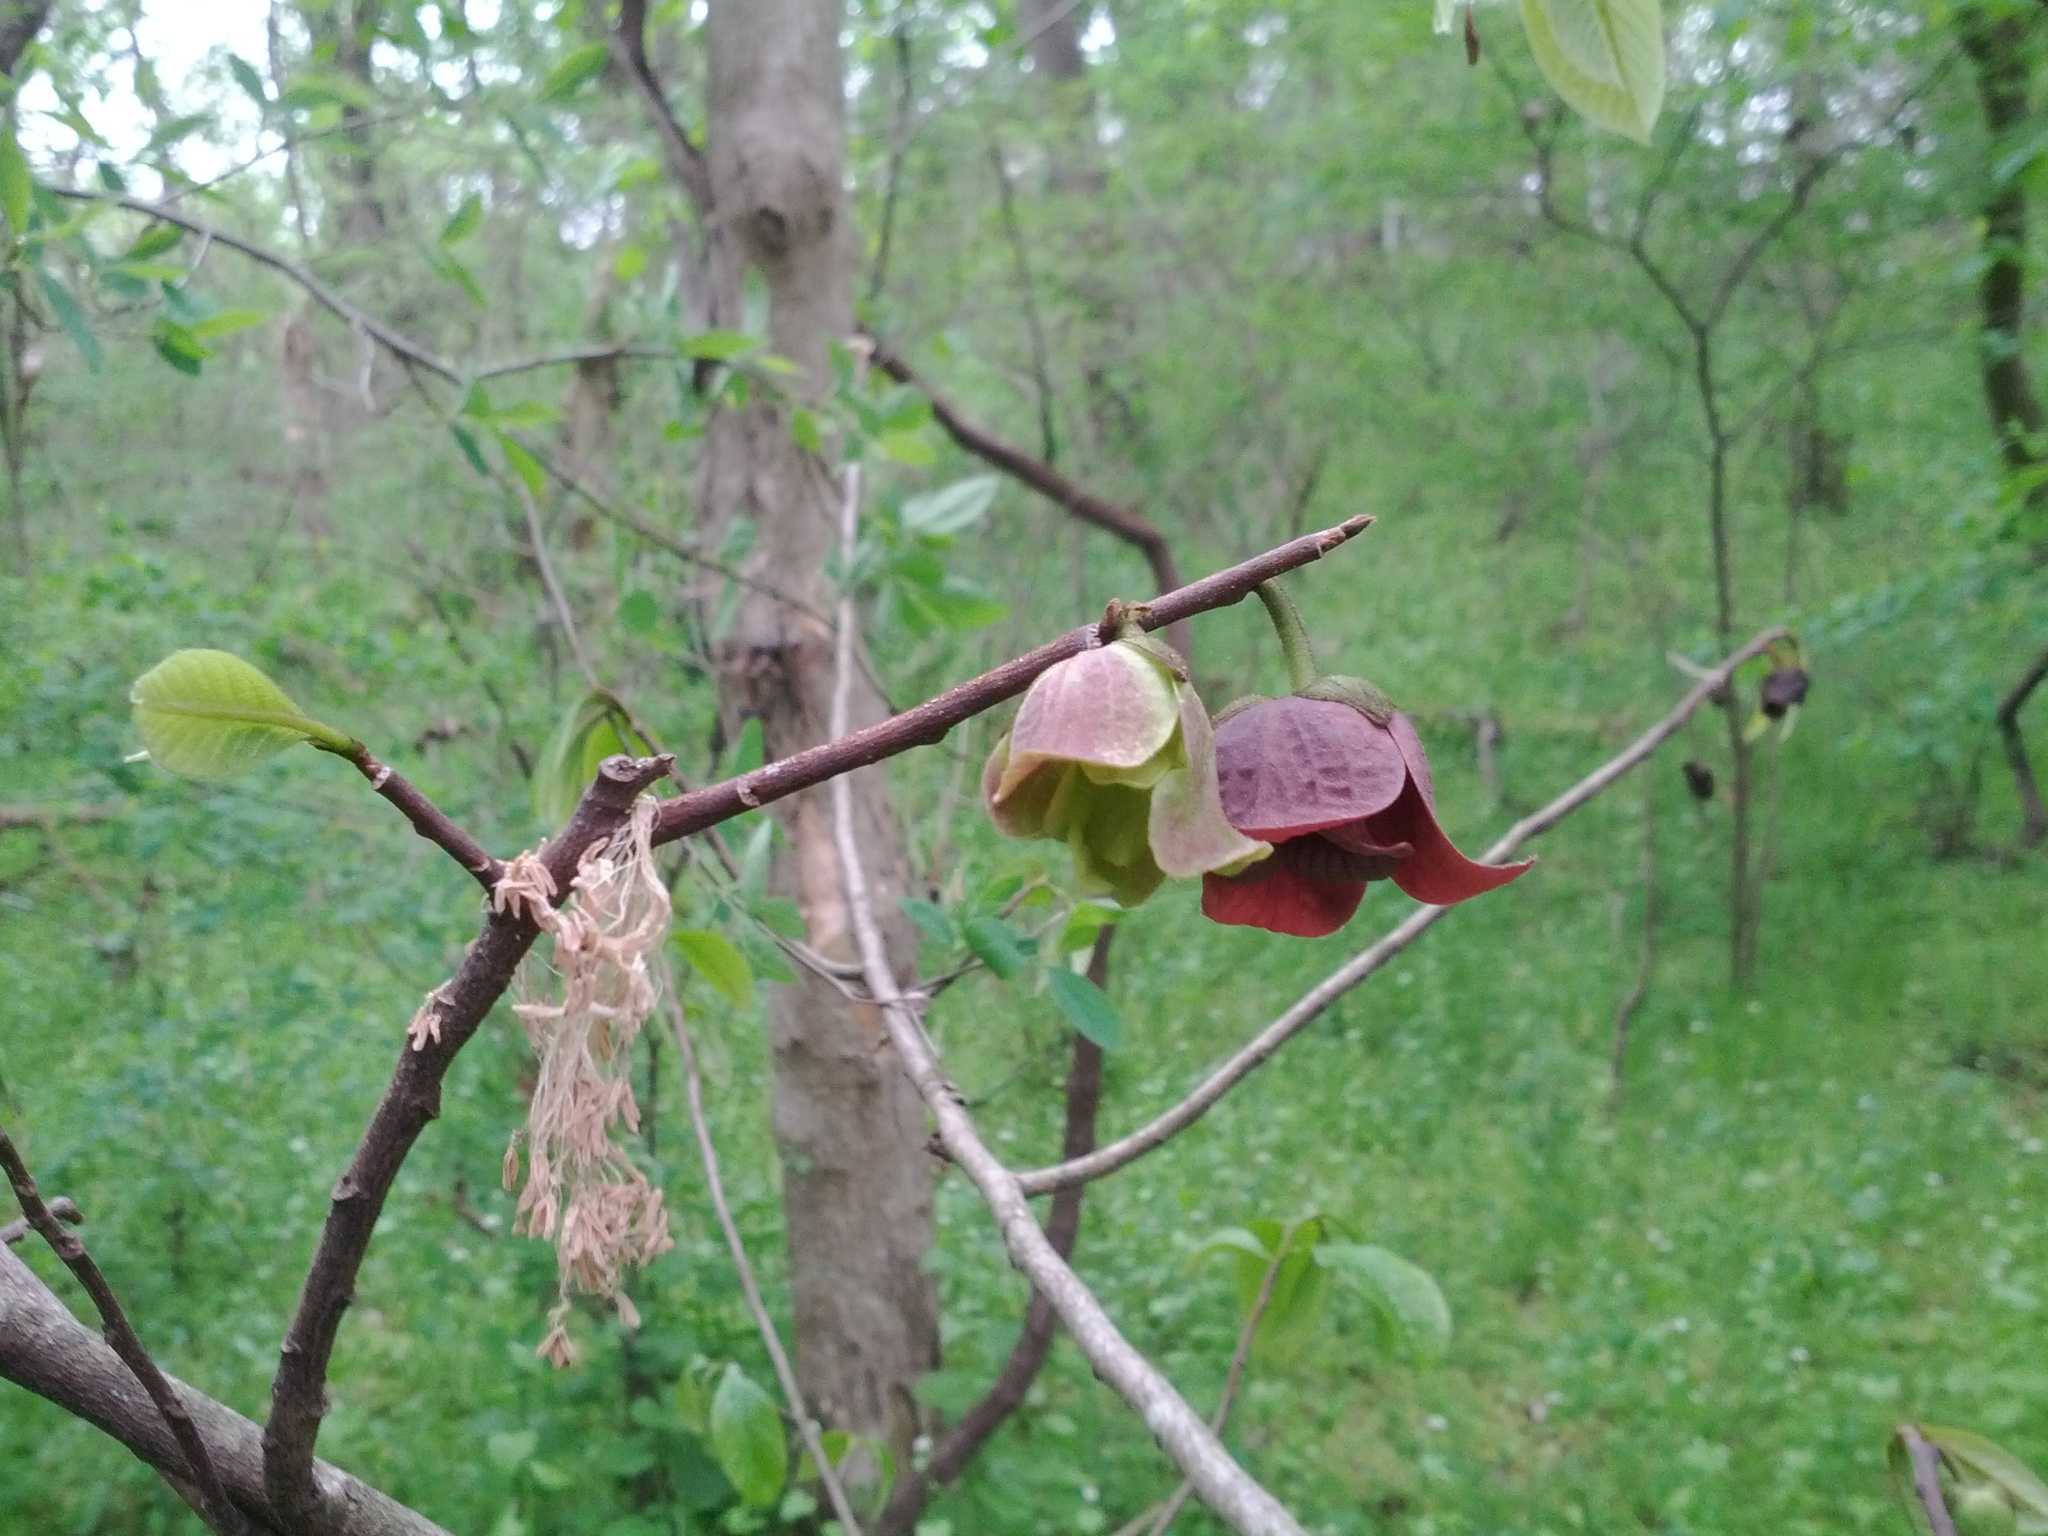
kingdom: Plantae
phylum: Tracheophyta
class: Magnoliopsida
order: Magnoliales
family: Annonaceae
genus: Asimina
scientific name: Asimina triloba
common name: Dog-banana
